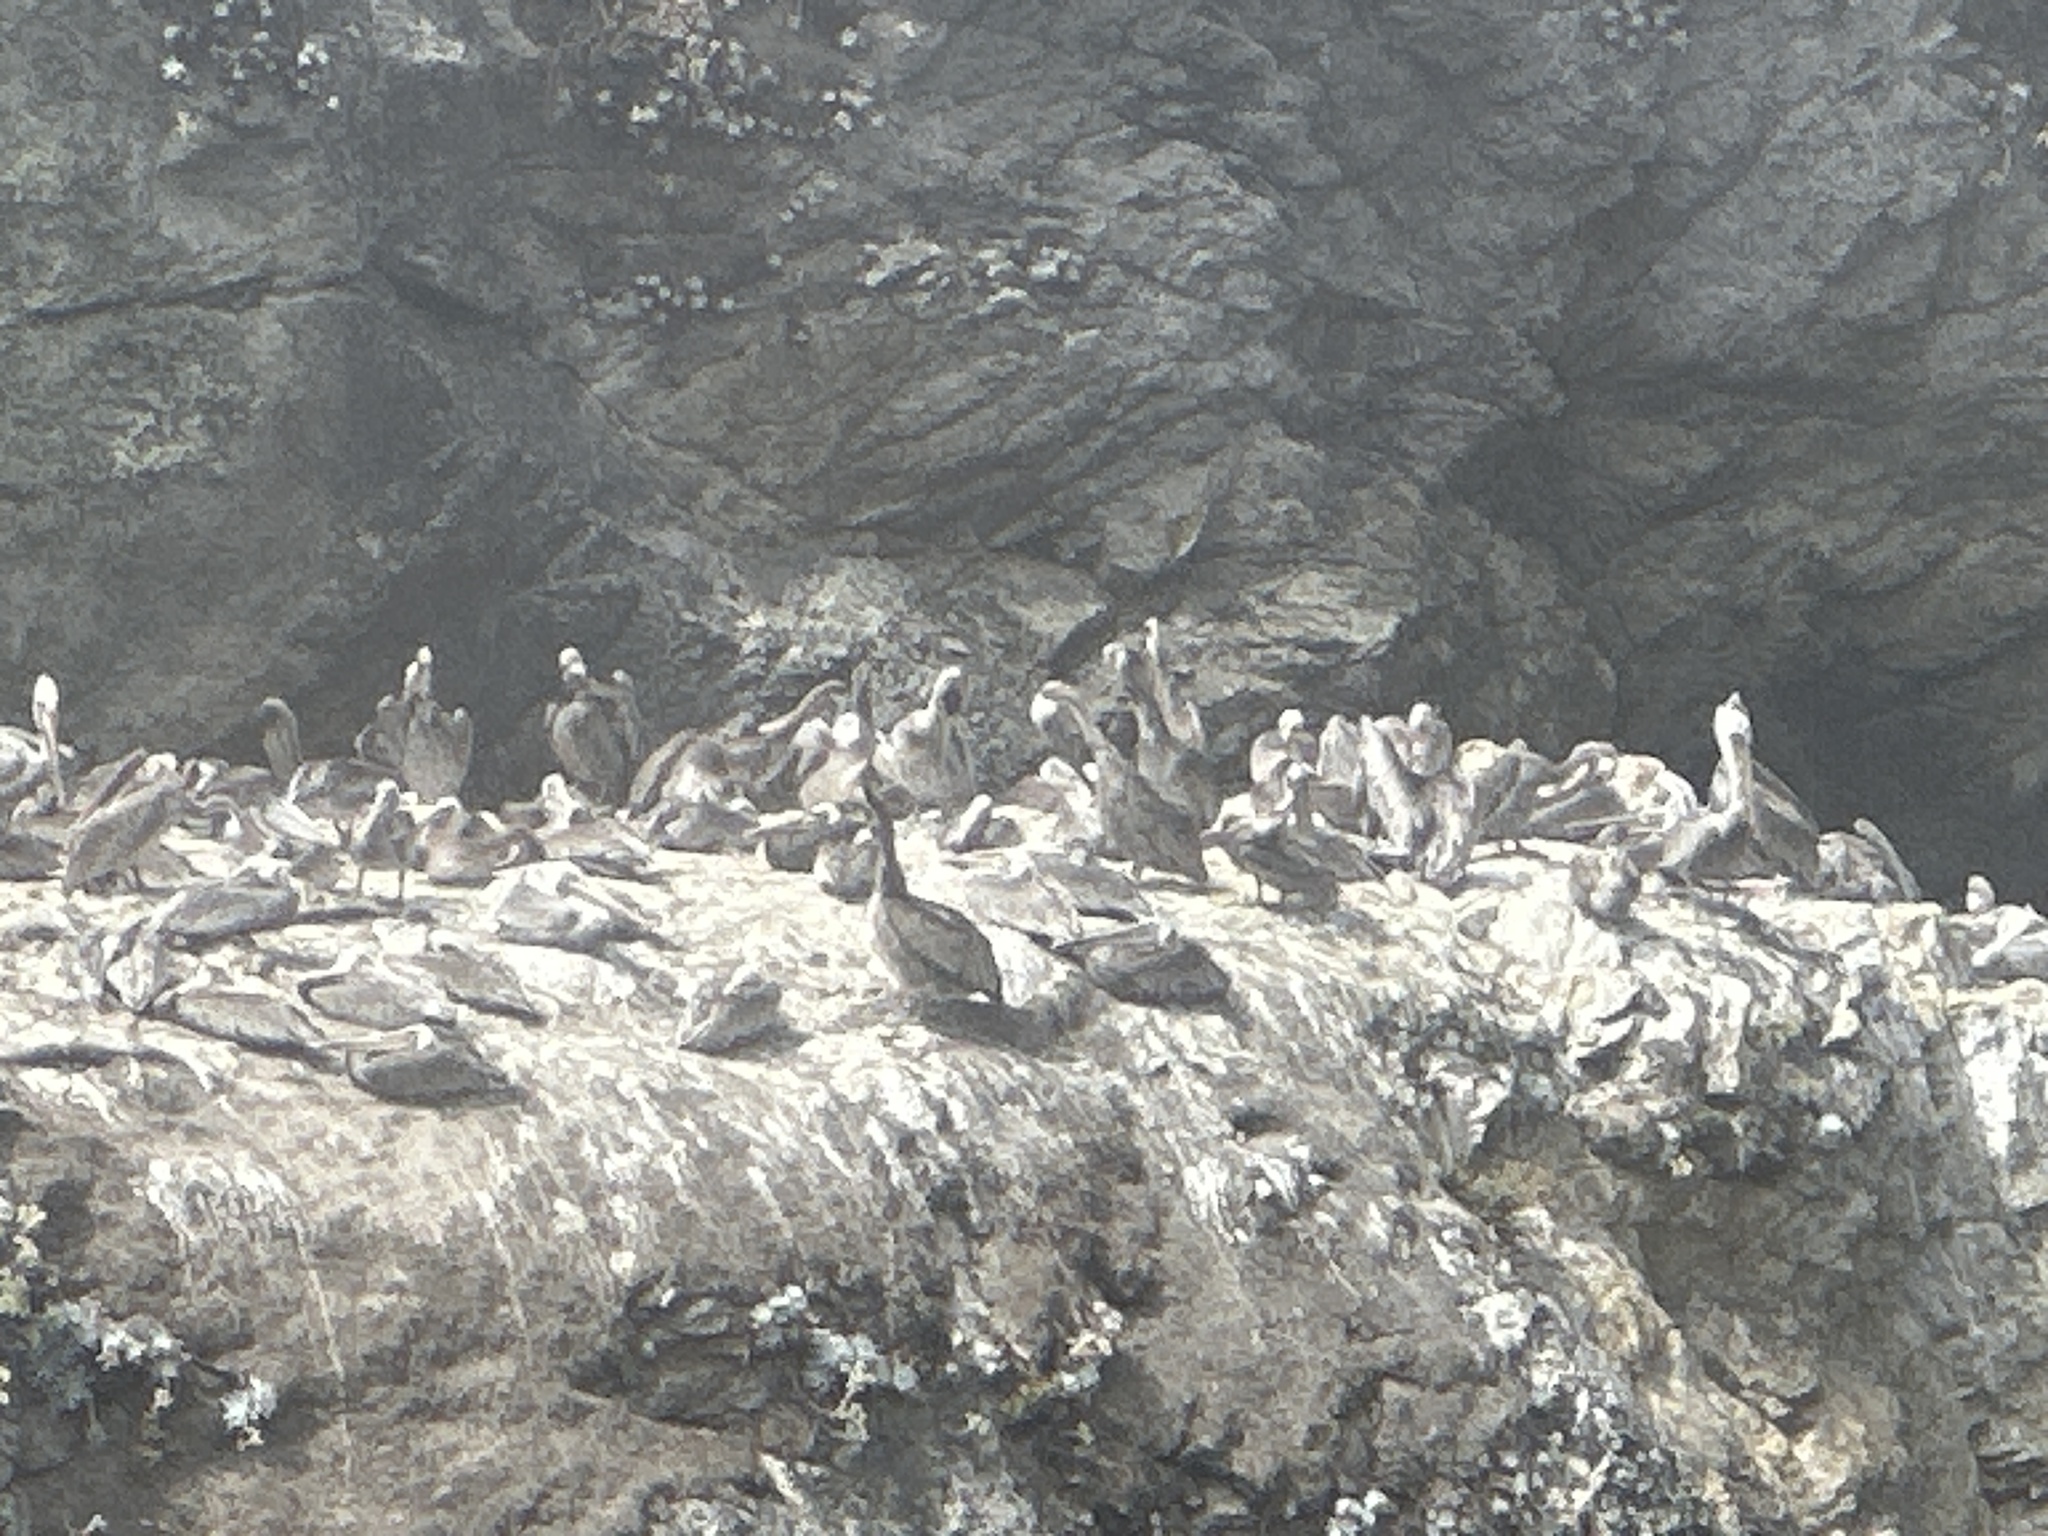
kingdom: Animalia
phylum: Chordata
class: Aves
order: Pelecaniformes
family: Pelecanidae
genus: Pelecanus
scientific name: Pelecanus occidentalis
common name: Brown pelican
